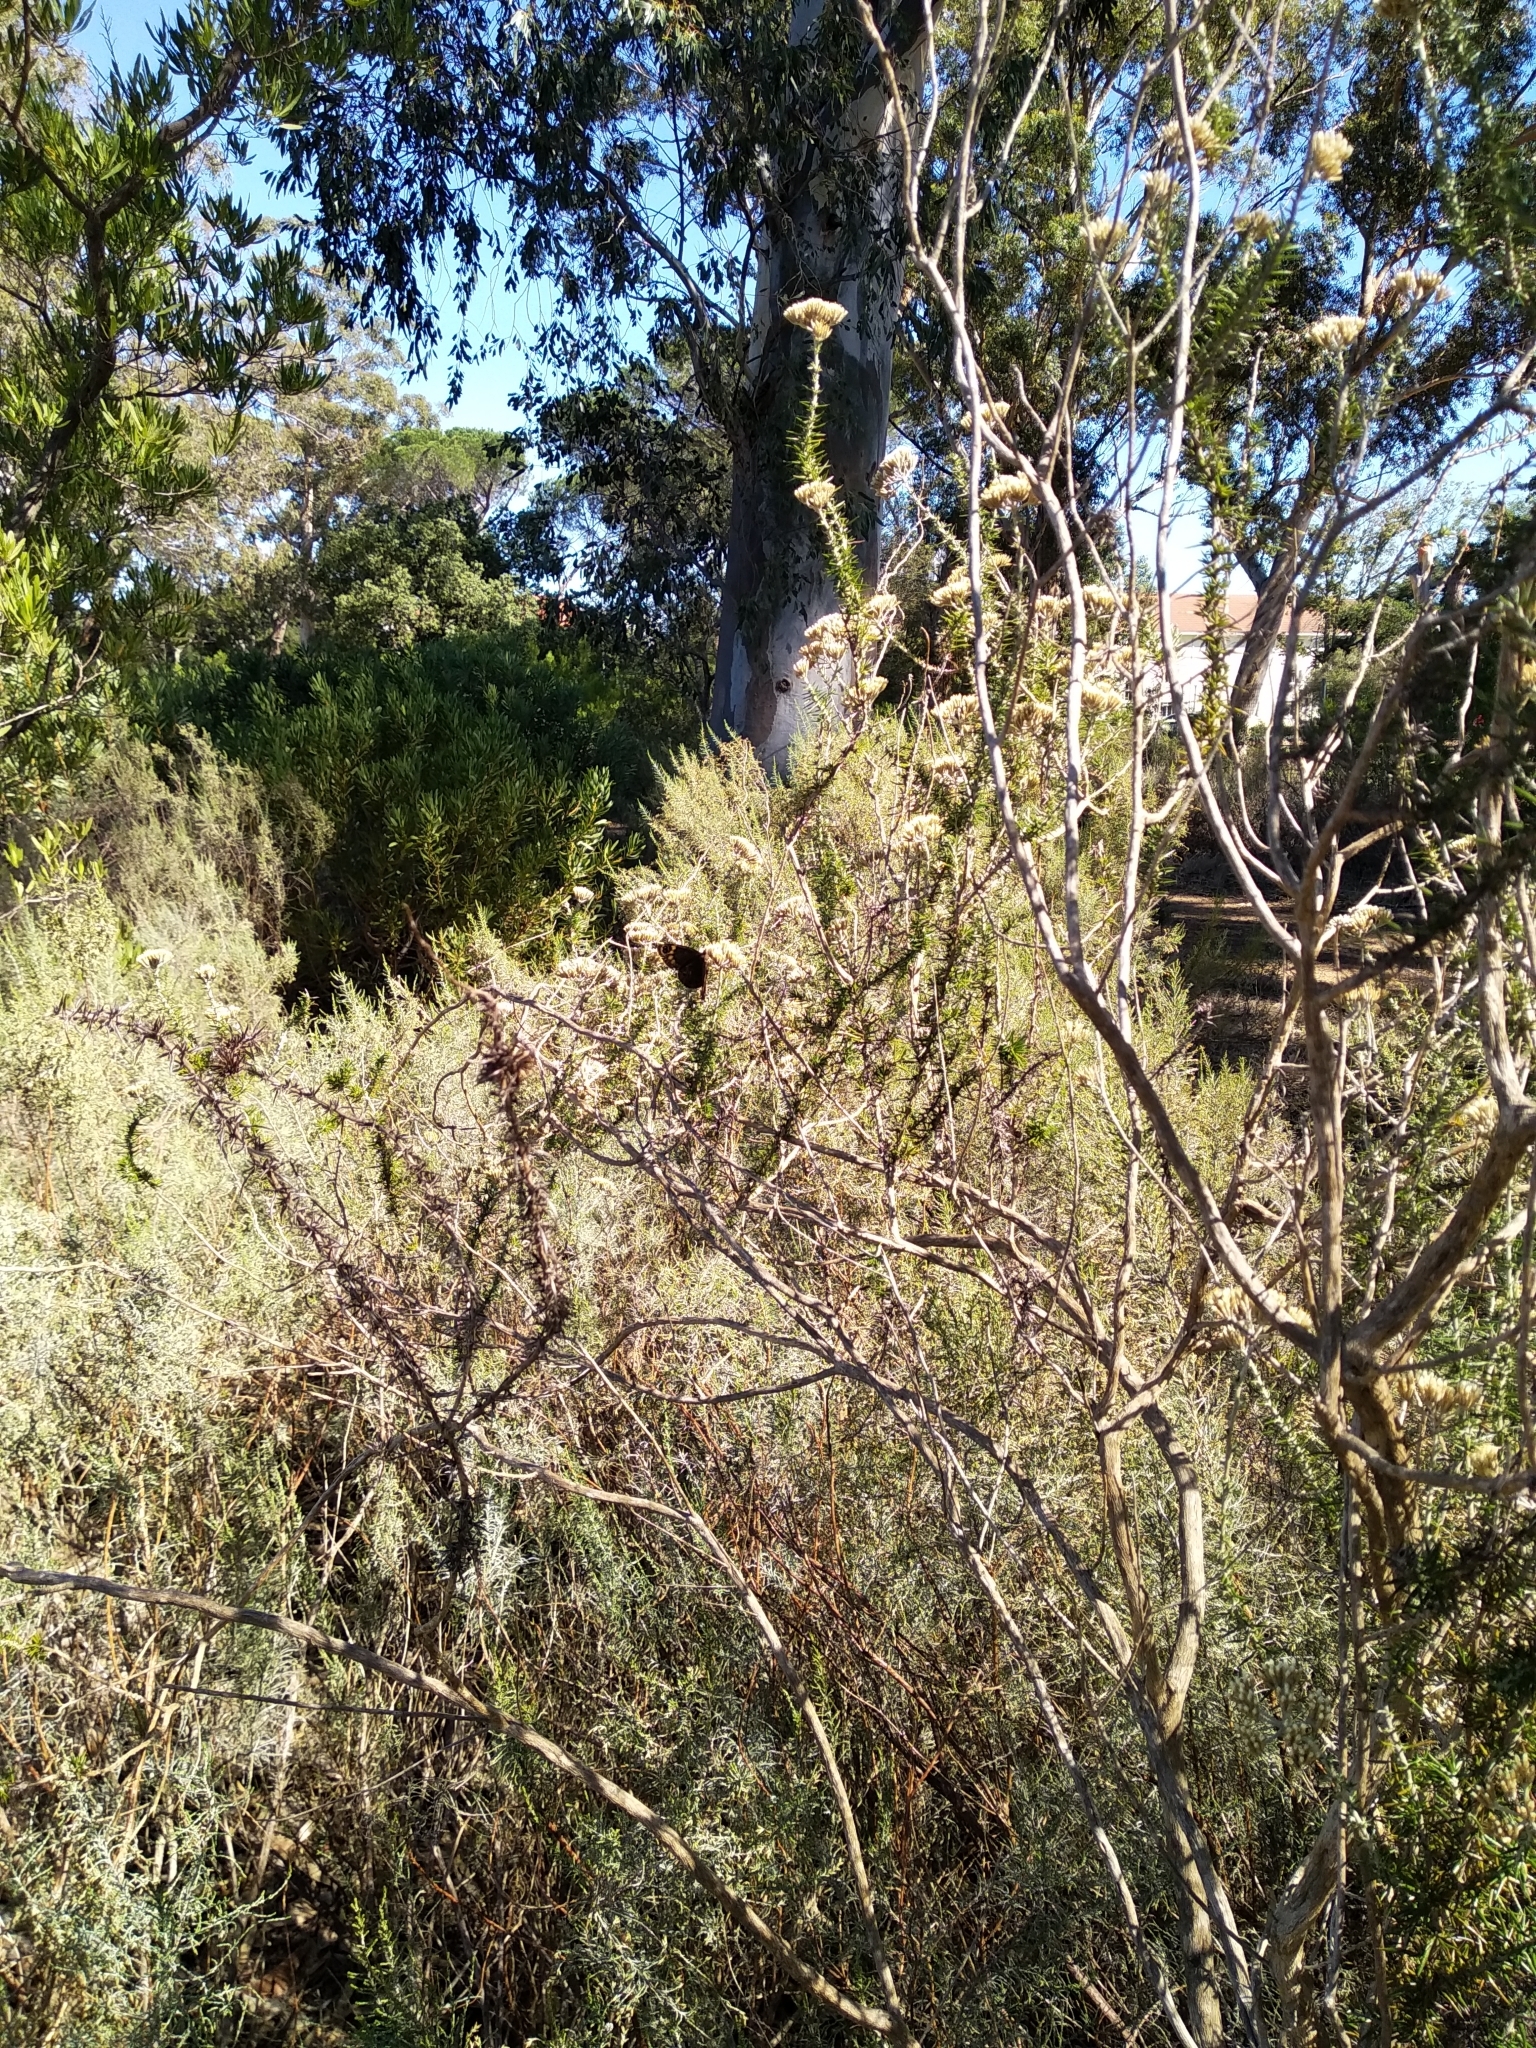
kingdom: Animalia
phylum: Arthropoda
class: Insecta
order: Lepidoptera
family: Nymphalidae
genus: Dira
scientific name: Dira clytus
